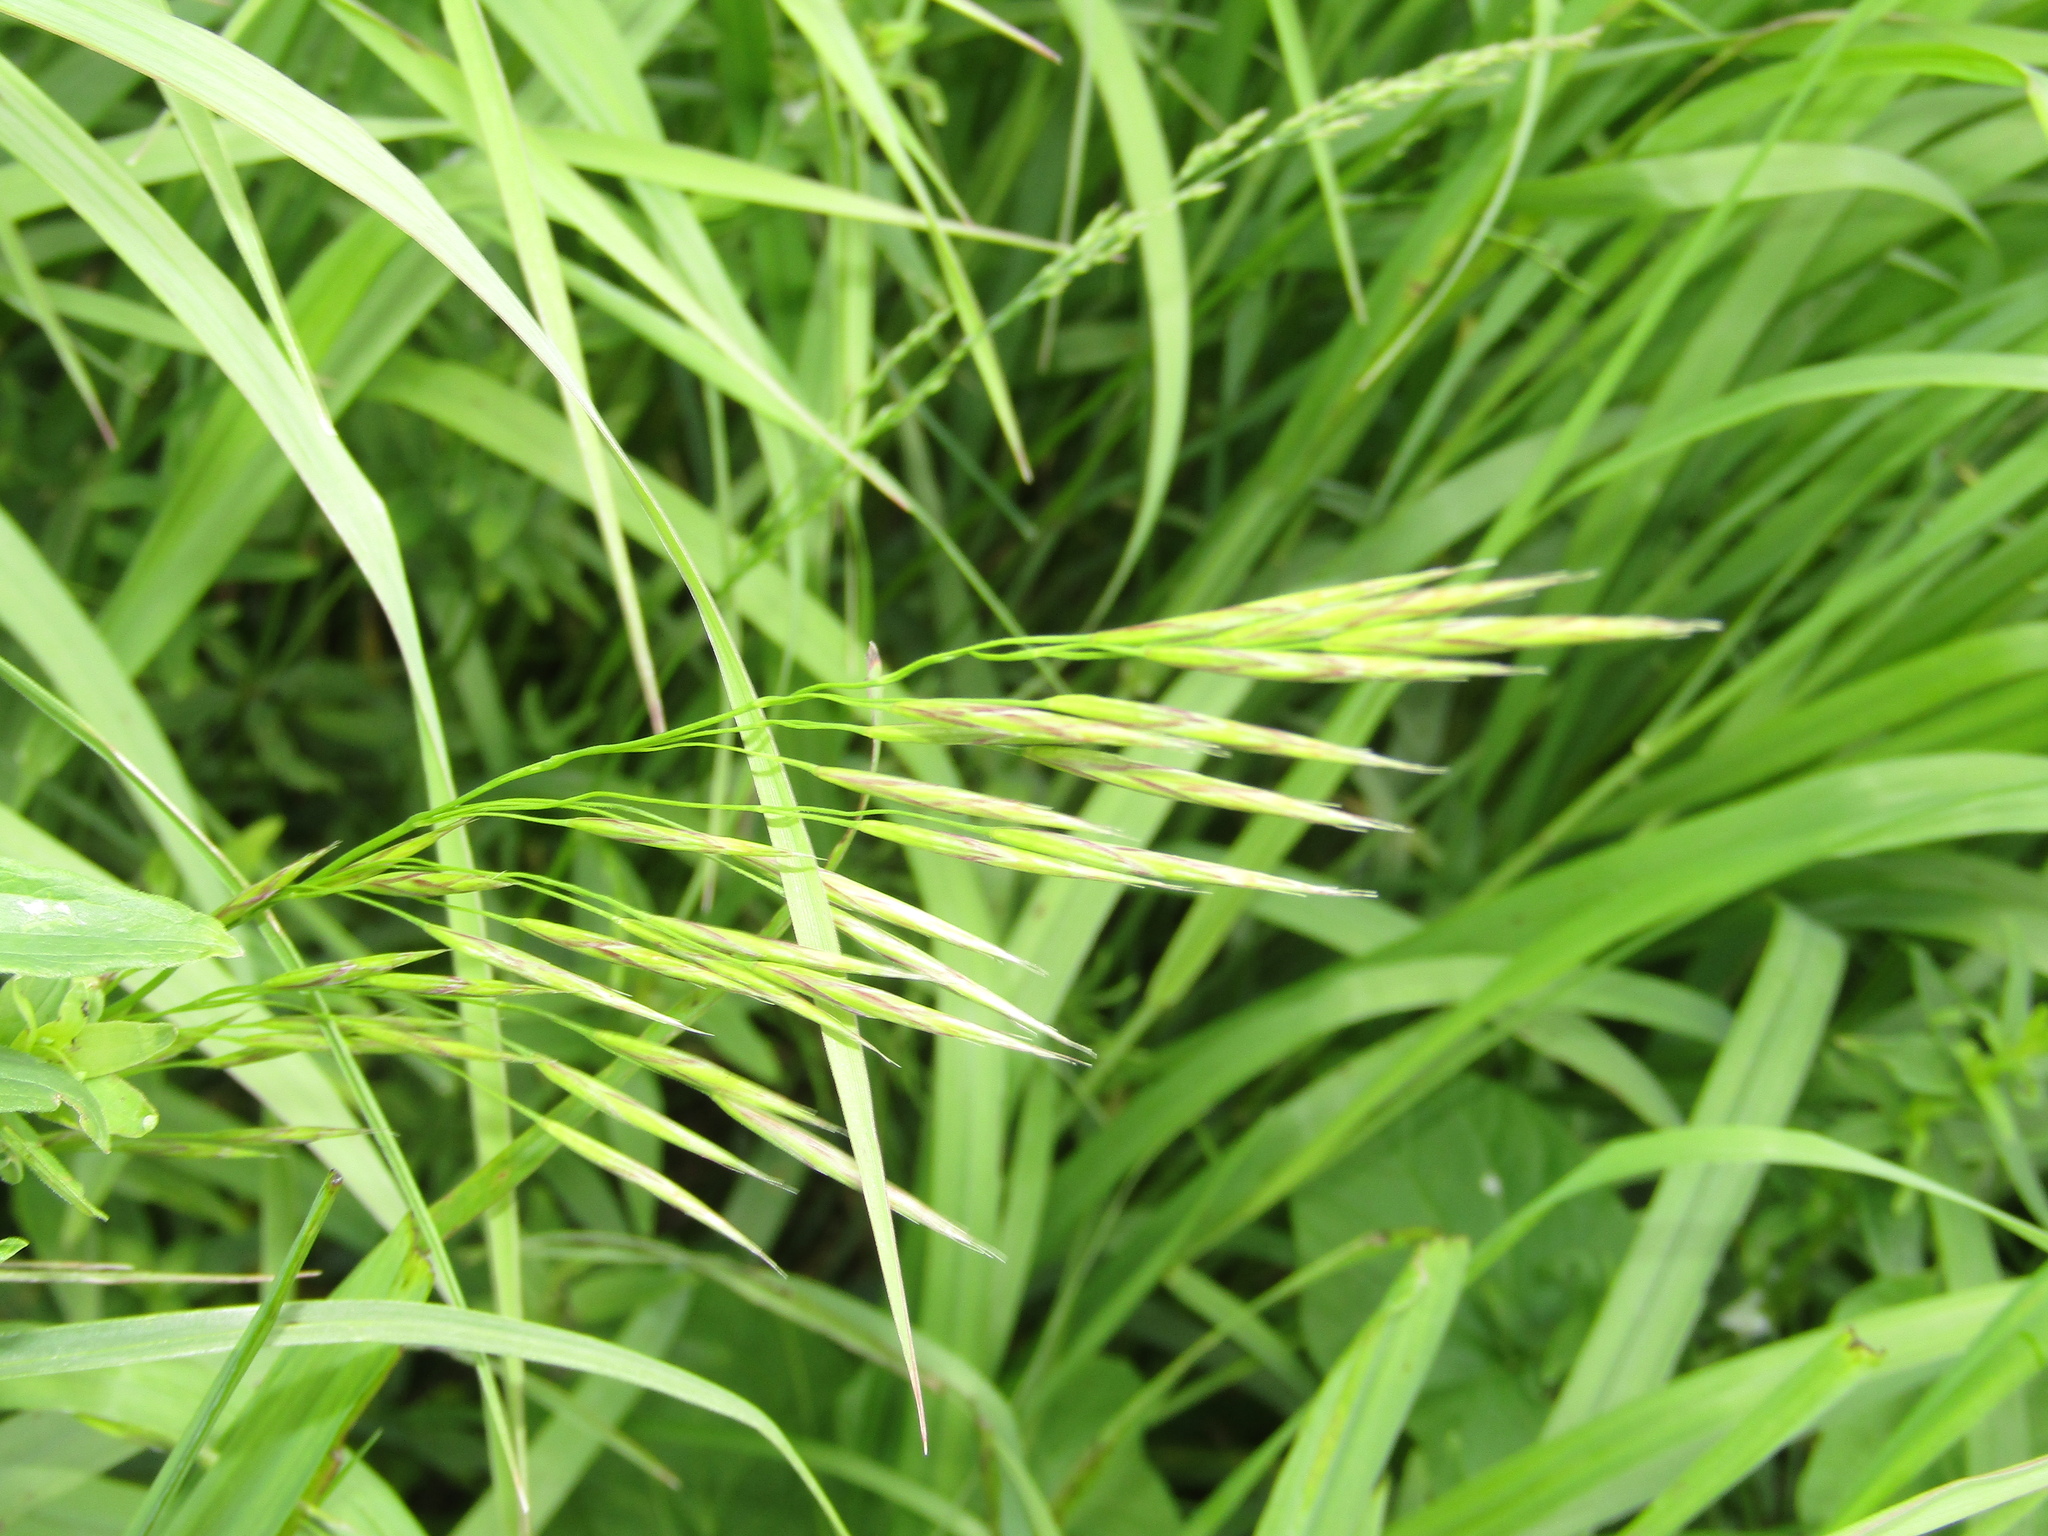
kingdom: Plantae
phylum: Tracheophyta
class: Liliopsida
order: Poales
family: Poaceae
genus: Bromus
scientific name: Bromus inermis
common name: Smooth brome
